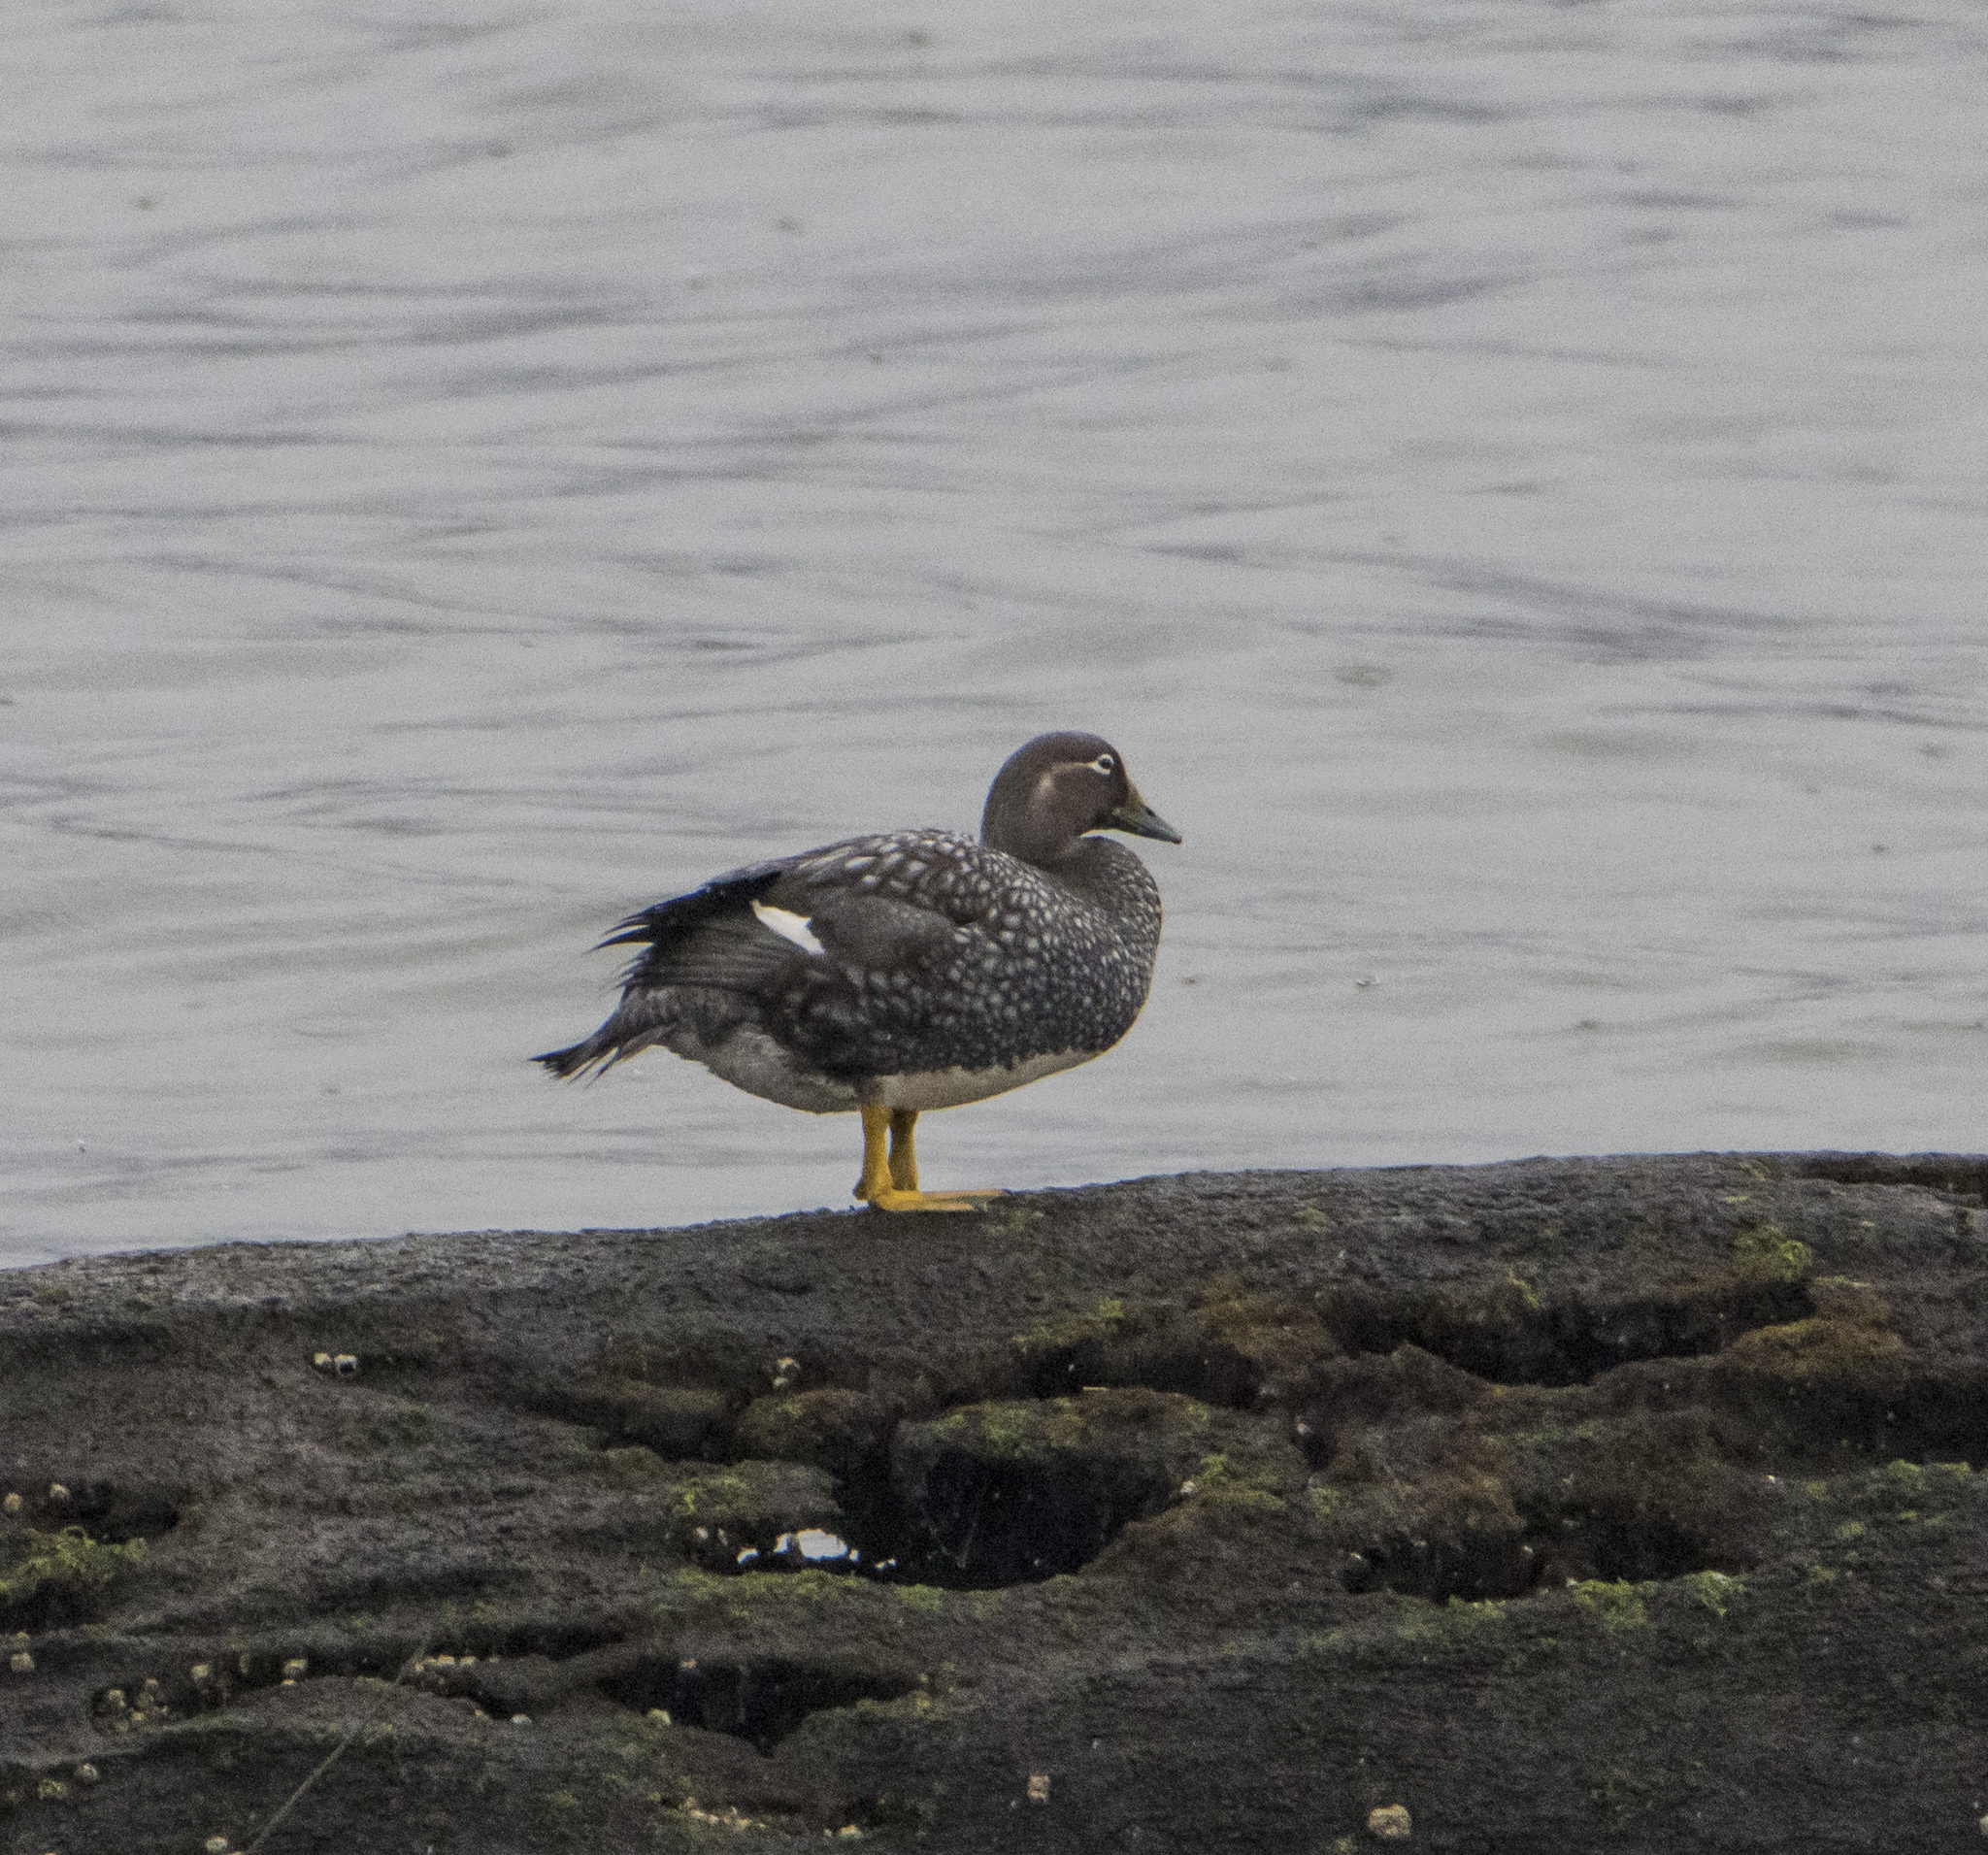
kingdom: Animalia
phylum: Chordata
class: Aves
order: Anseriformes
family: Anatidae
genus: Tachyeres
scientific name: Tachyeres patachonicus
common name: Flying steamer duck
